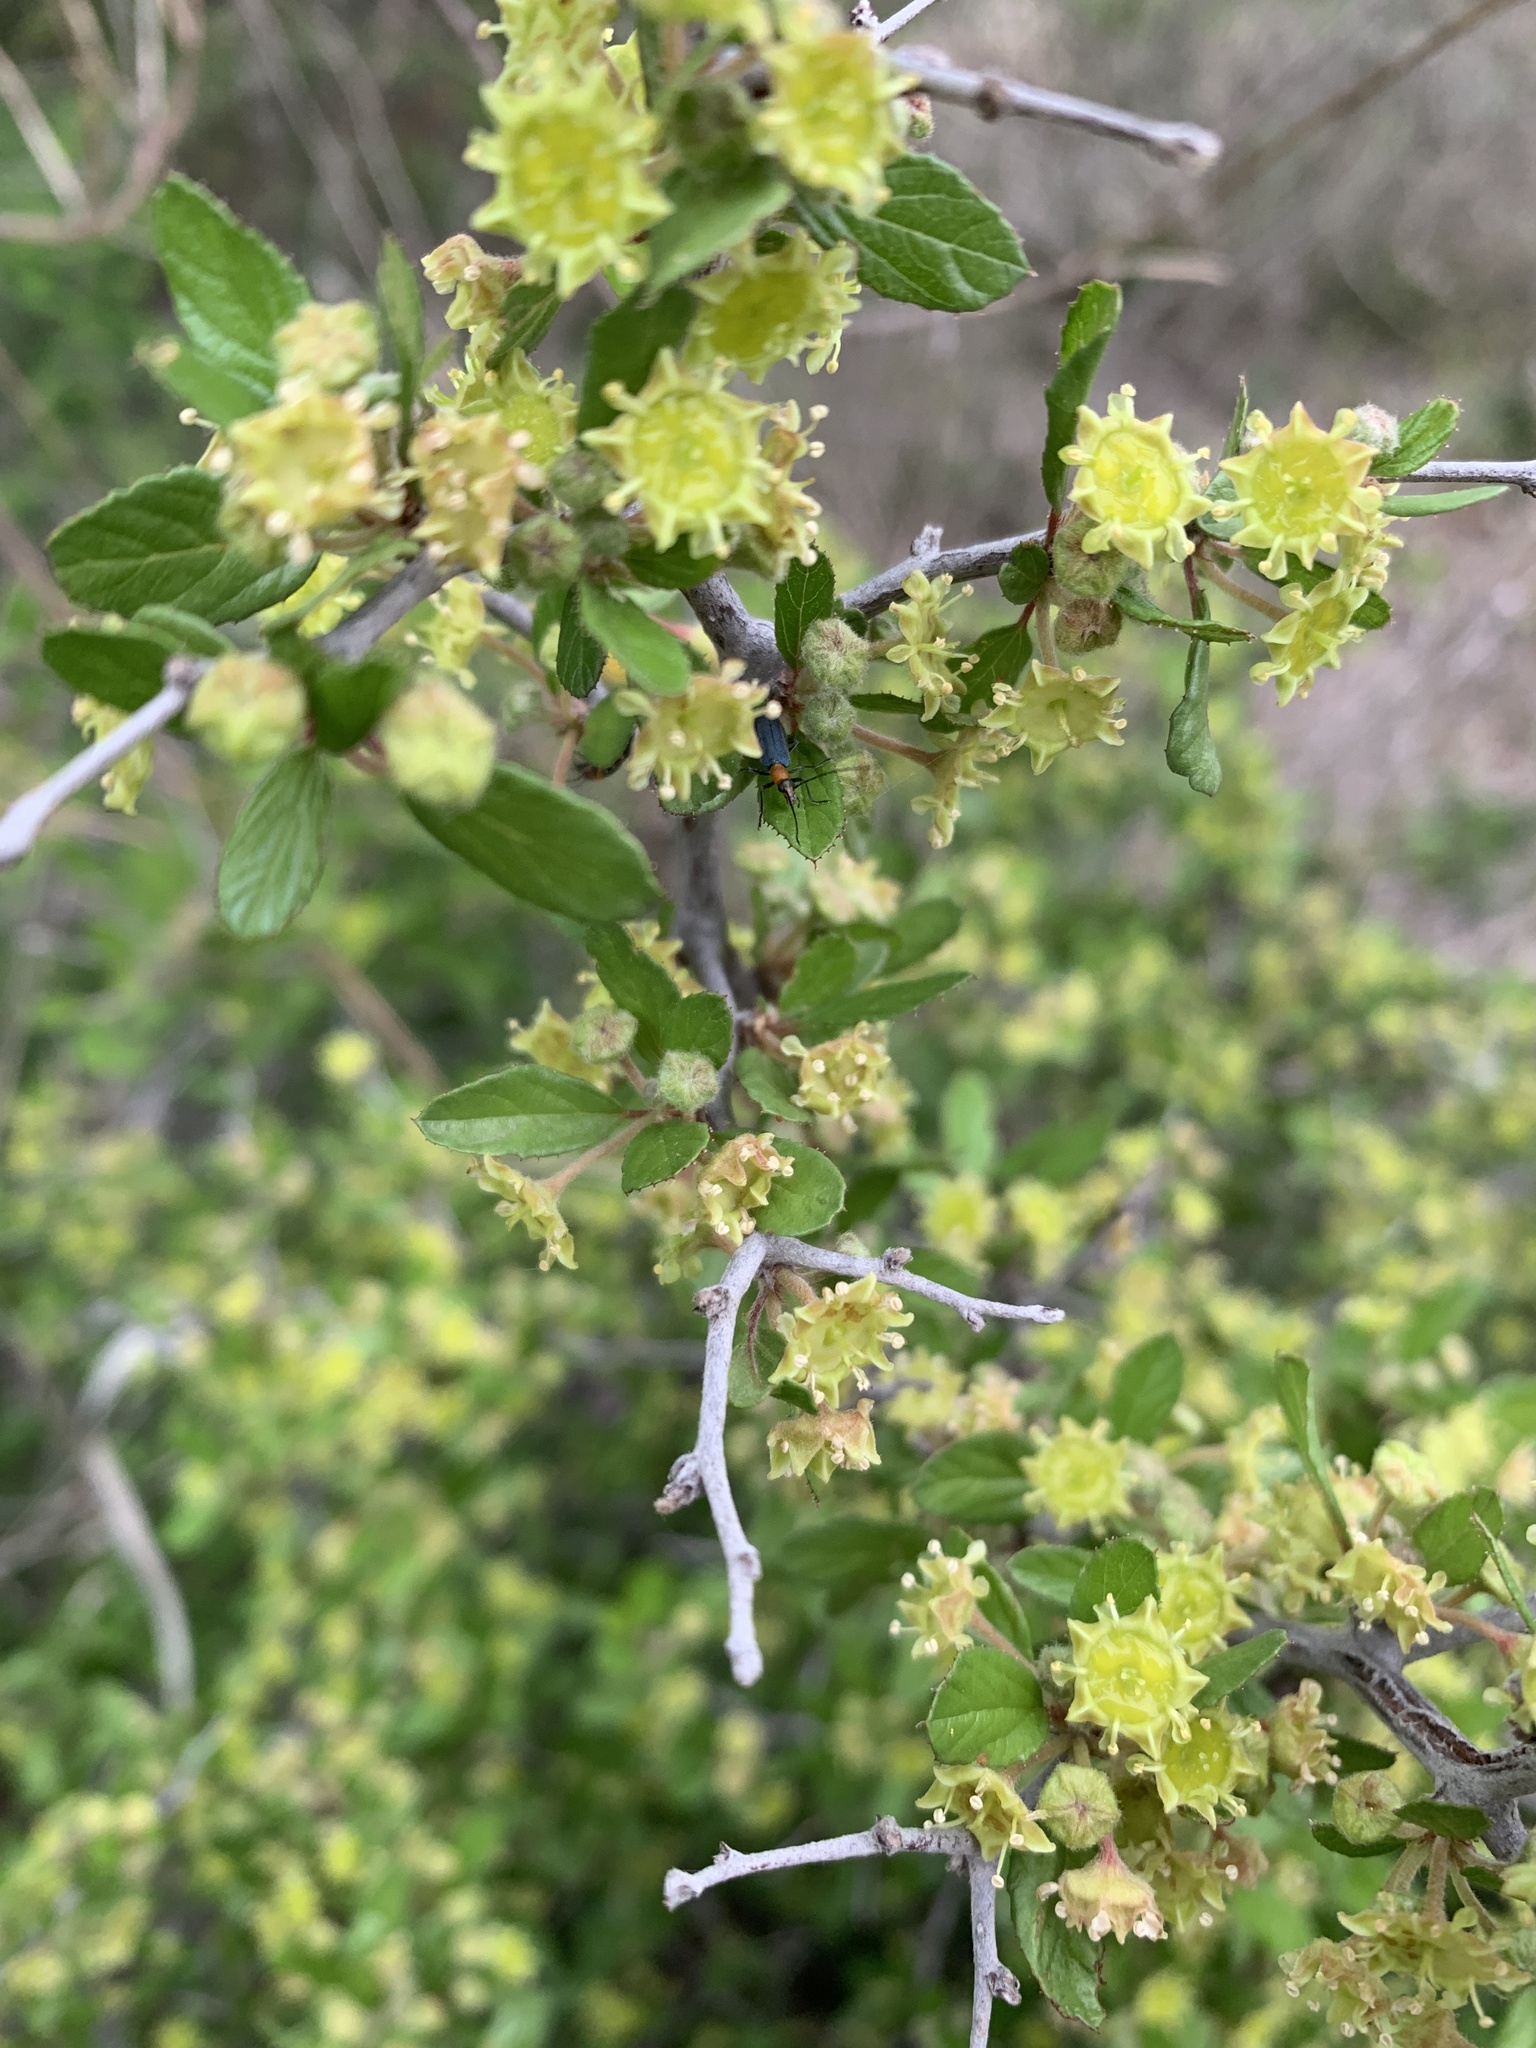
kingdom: Plantae
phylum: Tracheophyta
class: Magnoliopsida
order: Rosales
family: Rhamnaceae
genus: Colubrina
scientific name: Colubrina texensis
